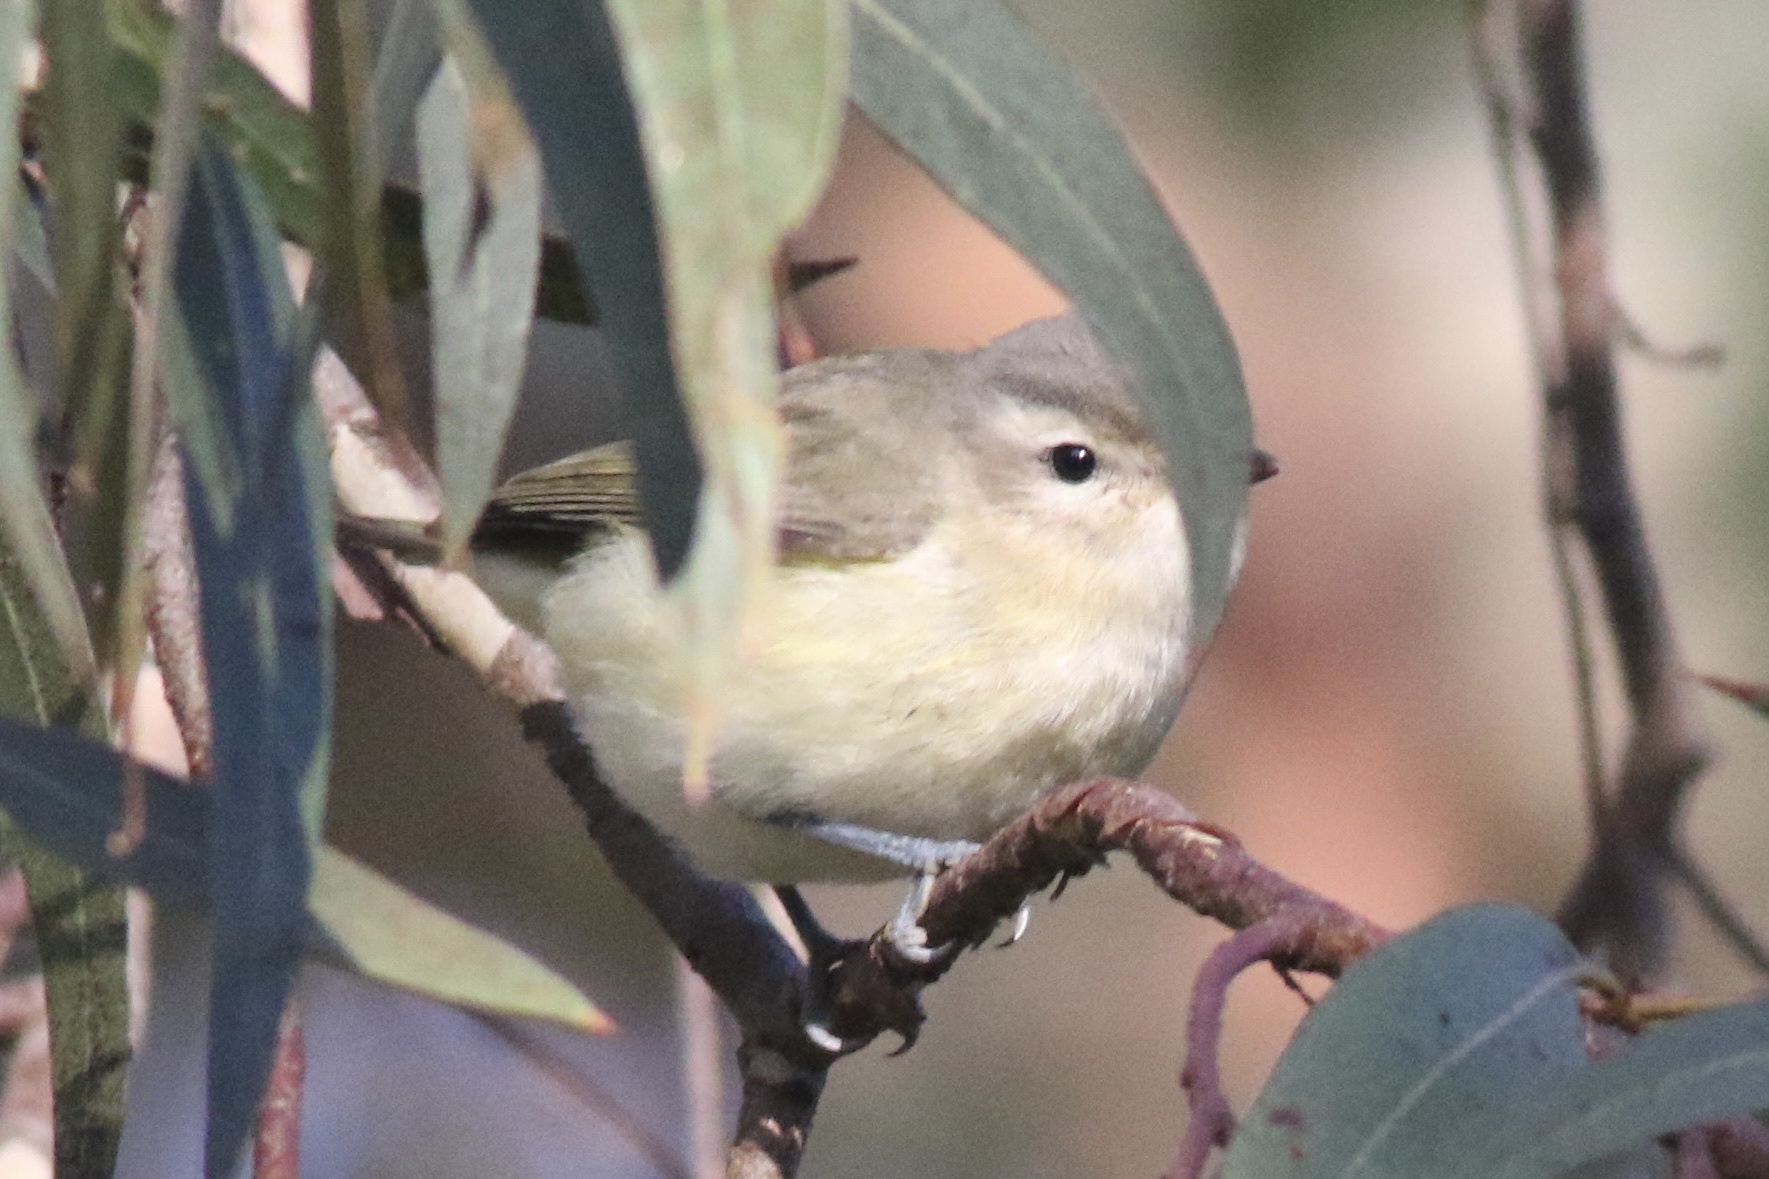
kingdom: Animalia
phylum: Chordata
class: Aves
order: Passeriformes
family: Vireonidae
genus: Vireo
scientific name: Vireo gilvus
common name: Warbling vireo
